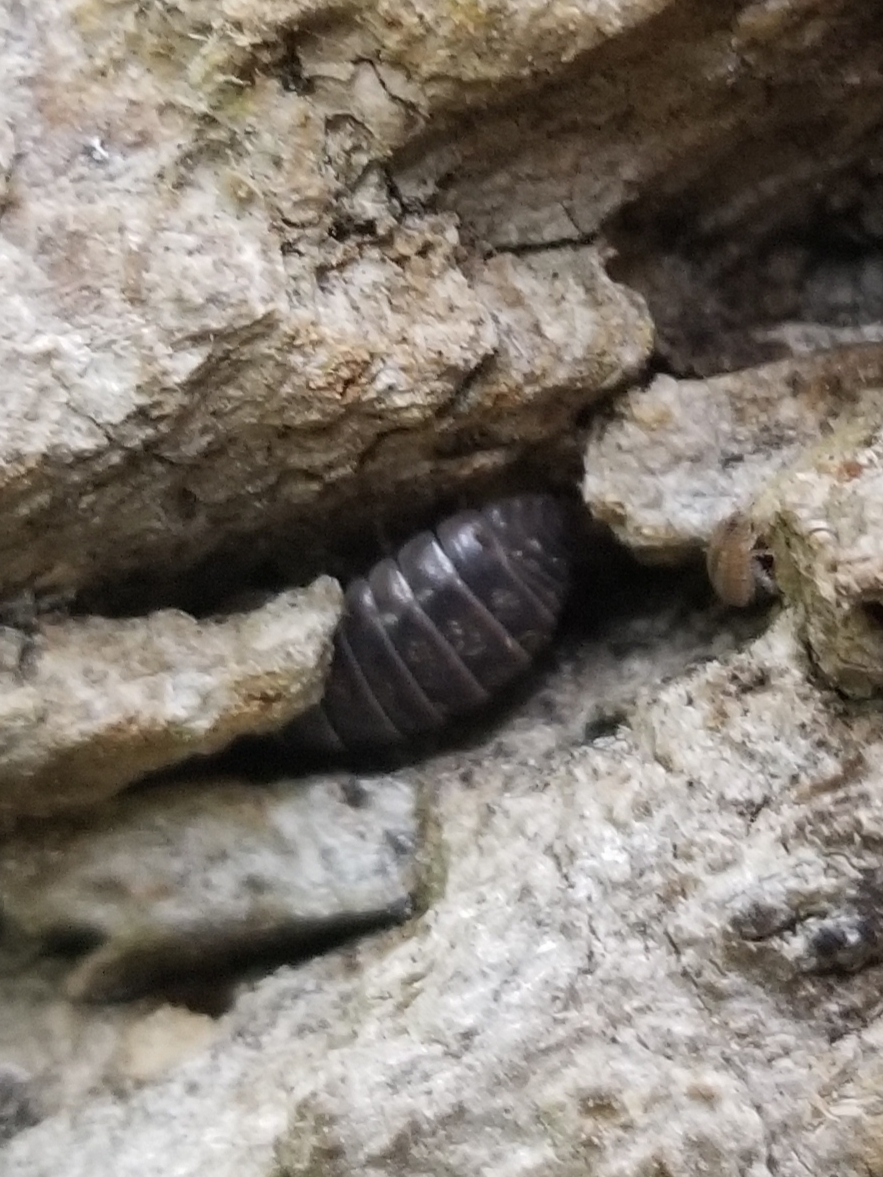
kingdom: Animalia
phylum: Arthropoda
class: Malacostraca
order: Isopoda
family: Armadillidiidae
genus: Armadillidium
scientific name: Armadillidium vulgare
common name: Common pill woodlouse
